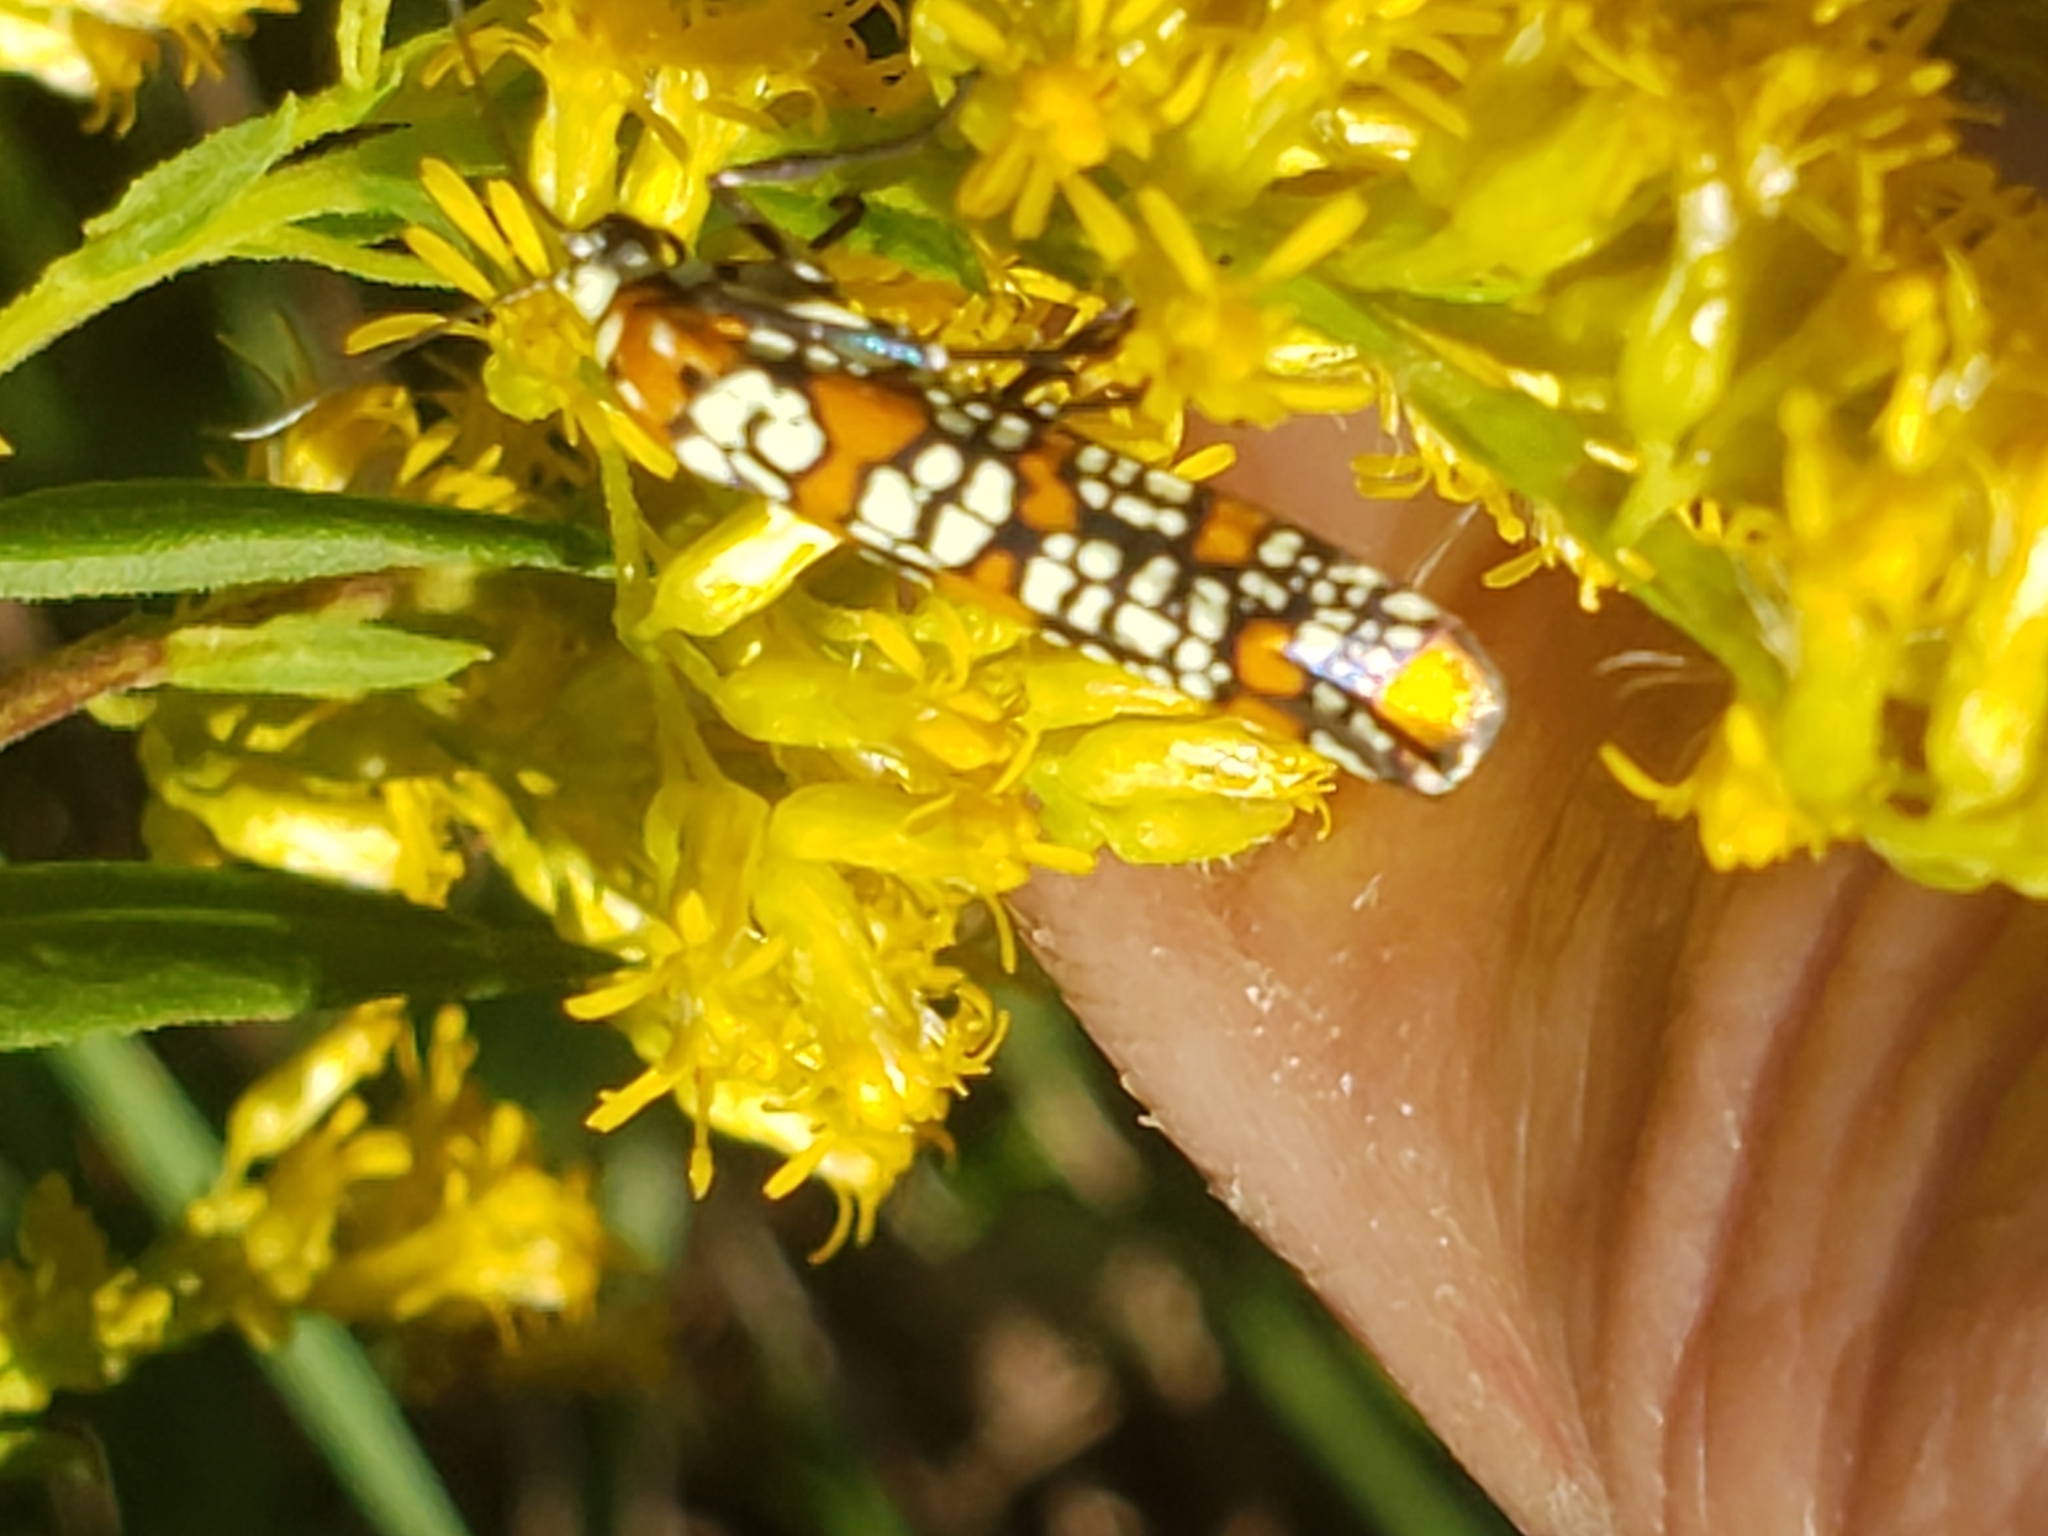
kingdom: Animalia
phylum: Arthropoda
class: Insecta
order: Lepidoptera
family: Attevidae
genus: Atteva
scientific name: Atteva punctella
